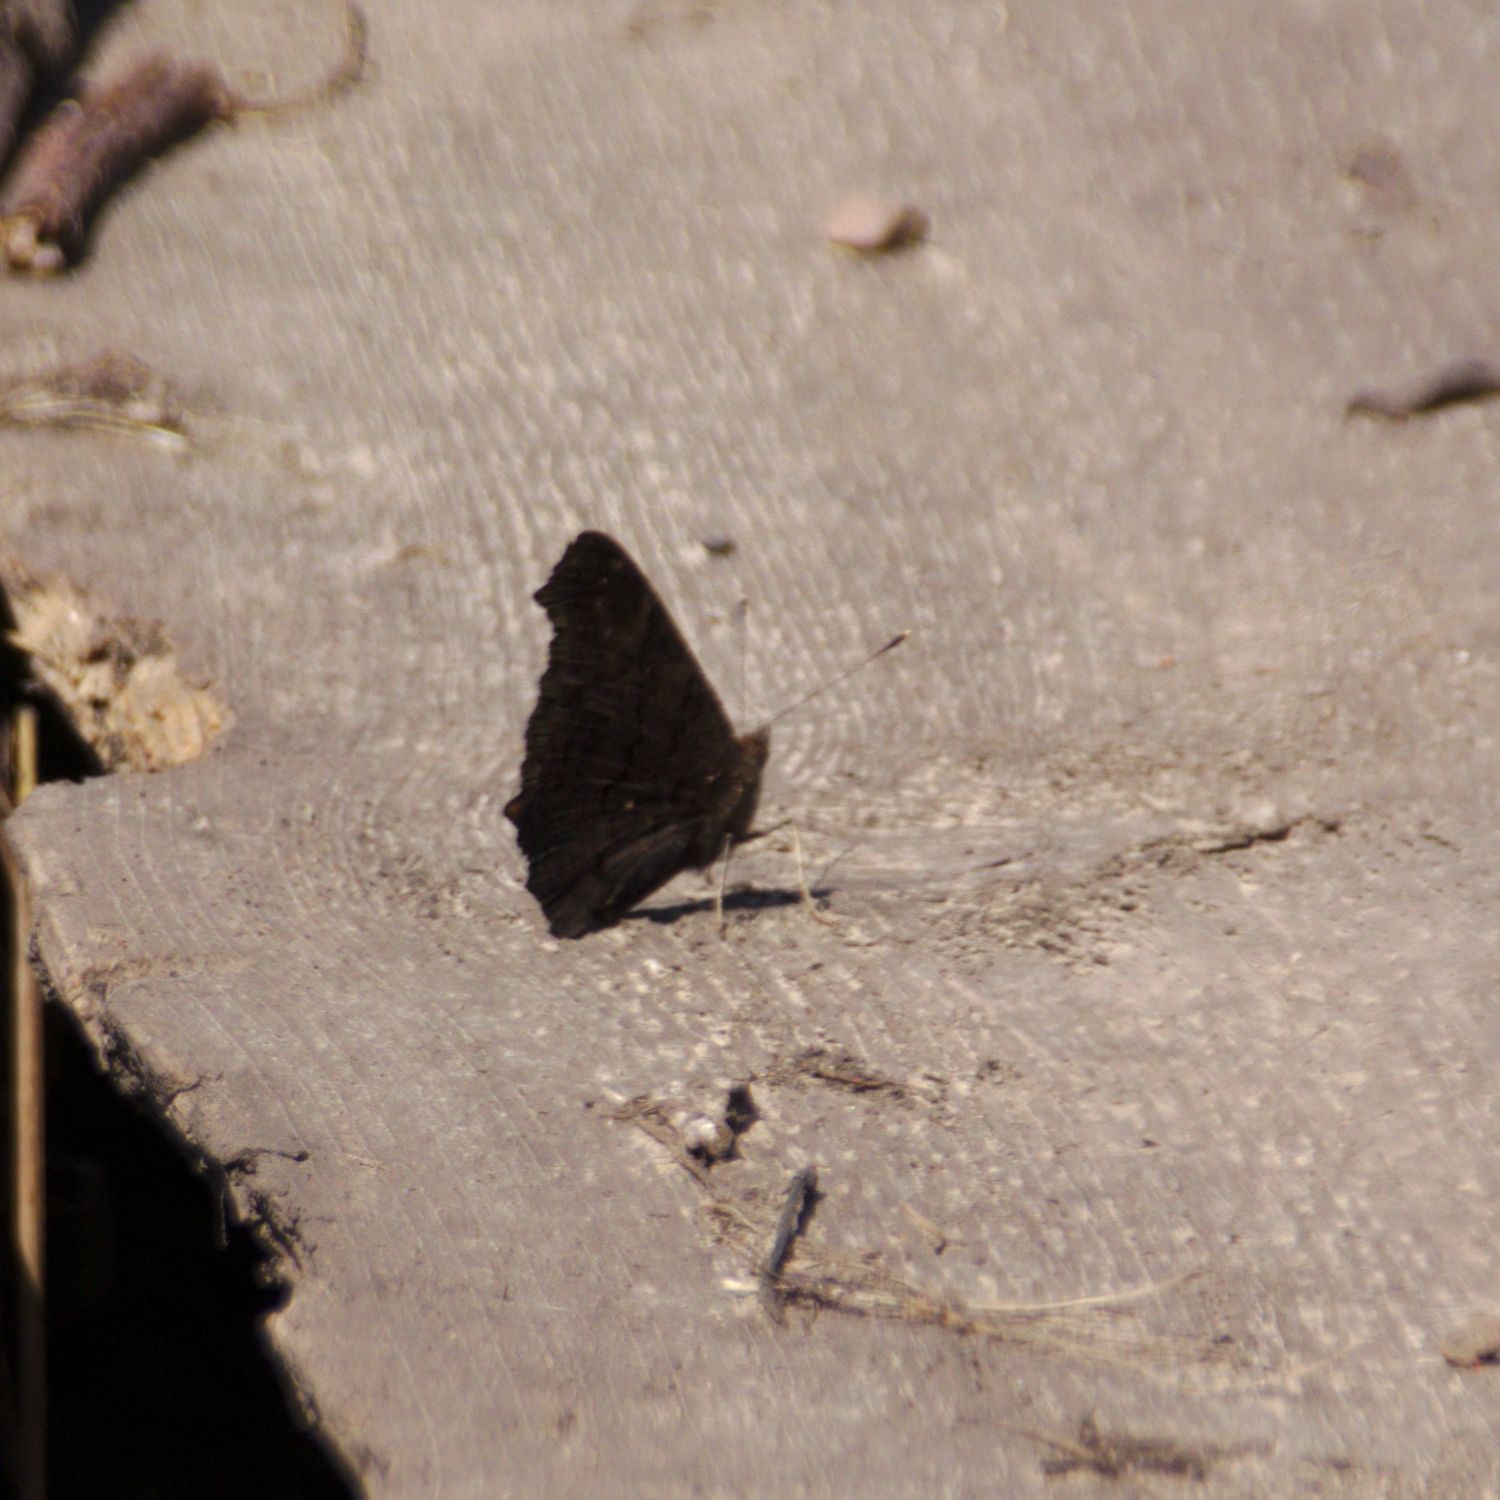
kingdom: Animalia
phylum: Arthropoda
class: Insecta
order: Lepidoptera
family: Nymphalidae
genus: Aglais
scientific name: Aglais io
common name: Peacock
